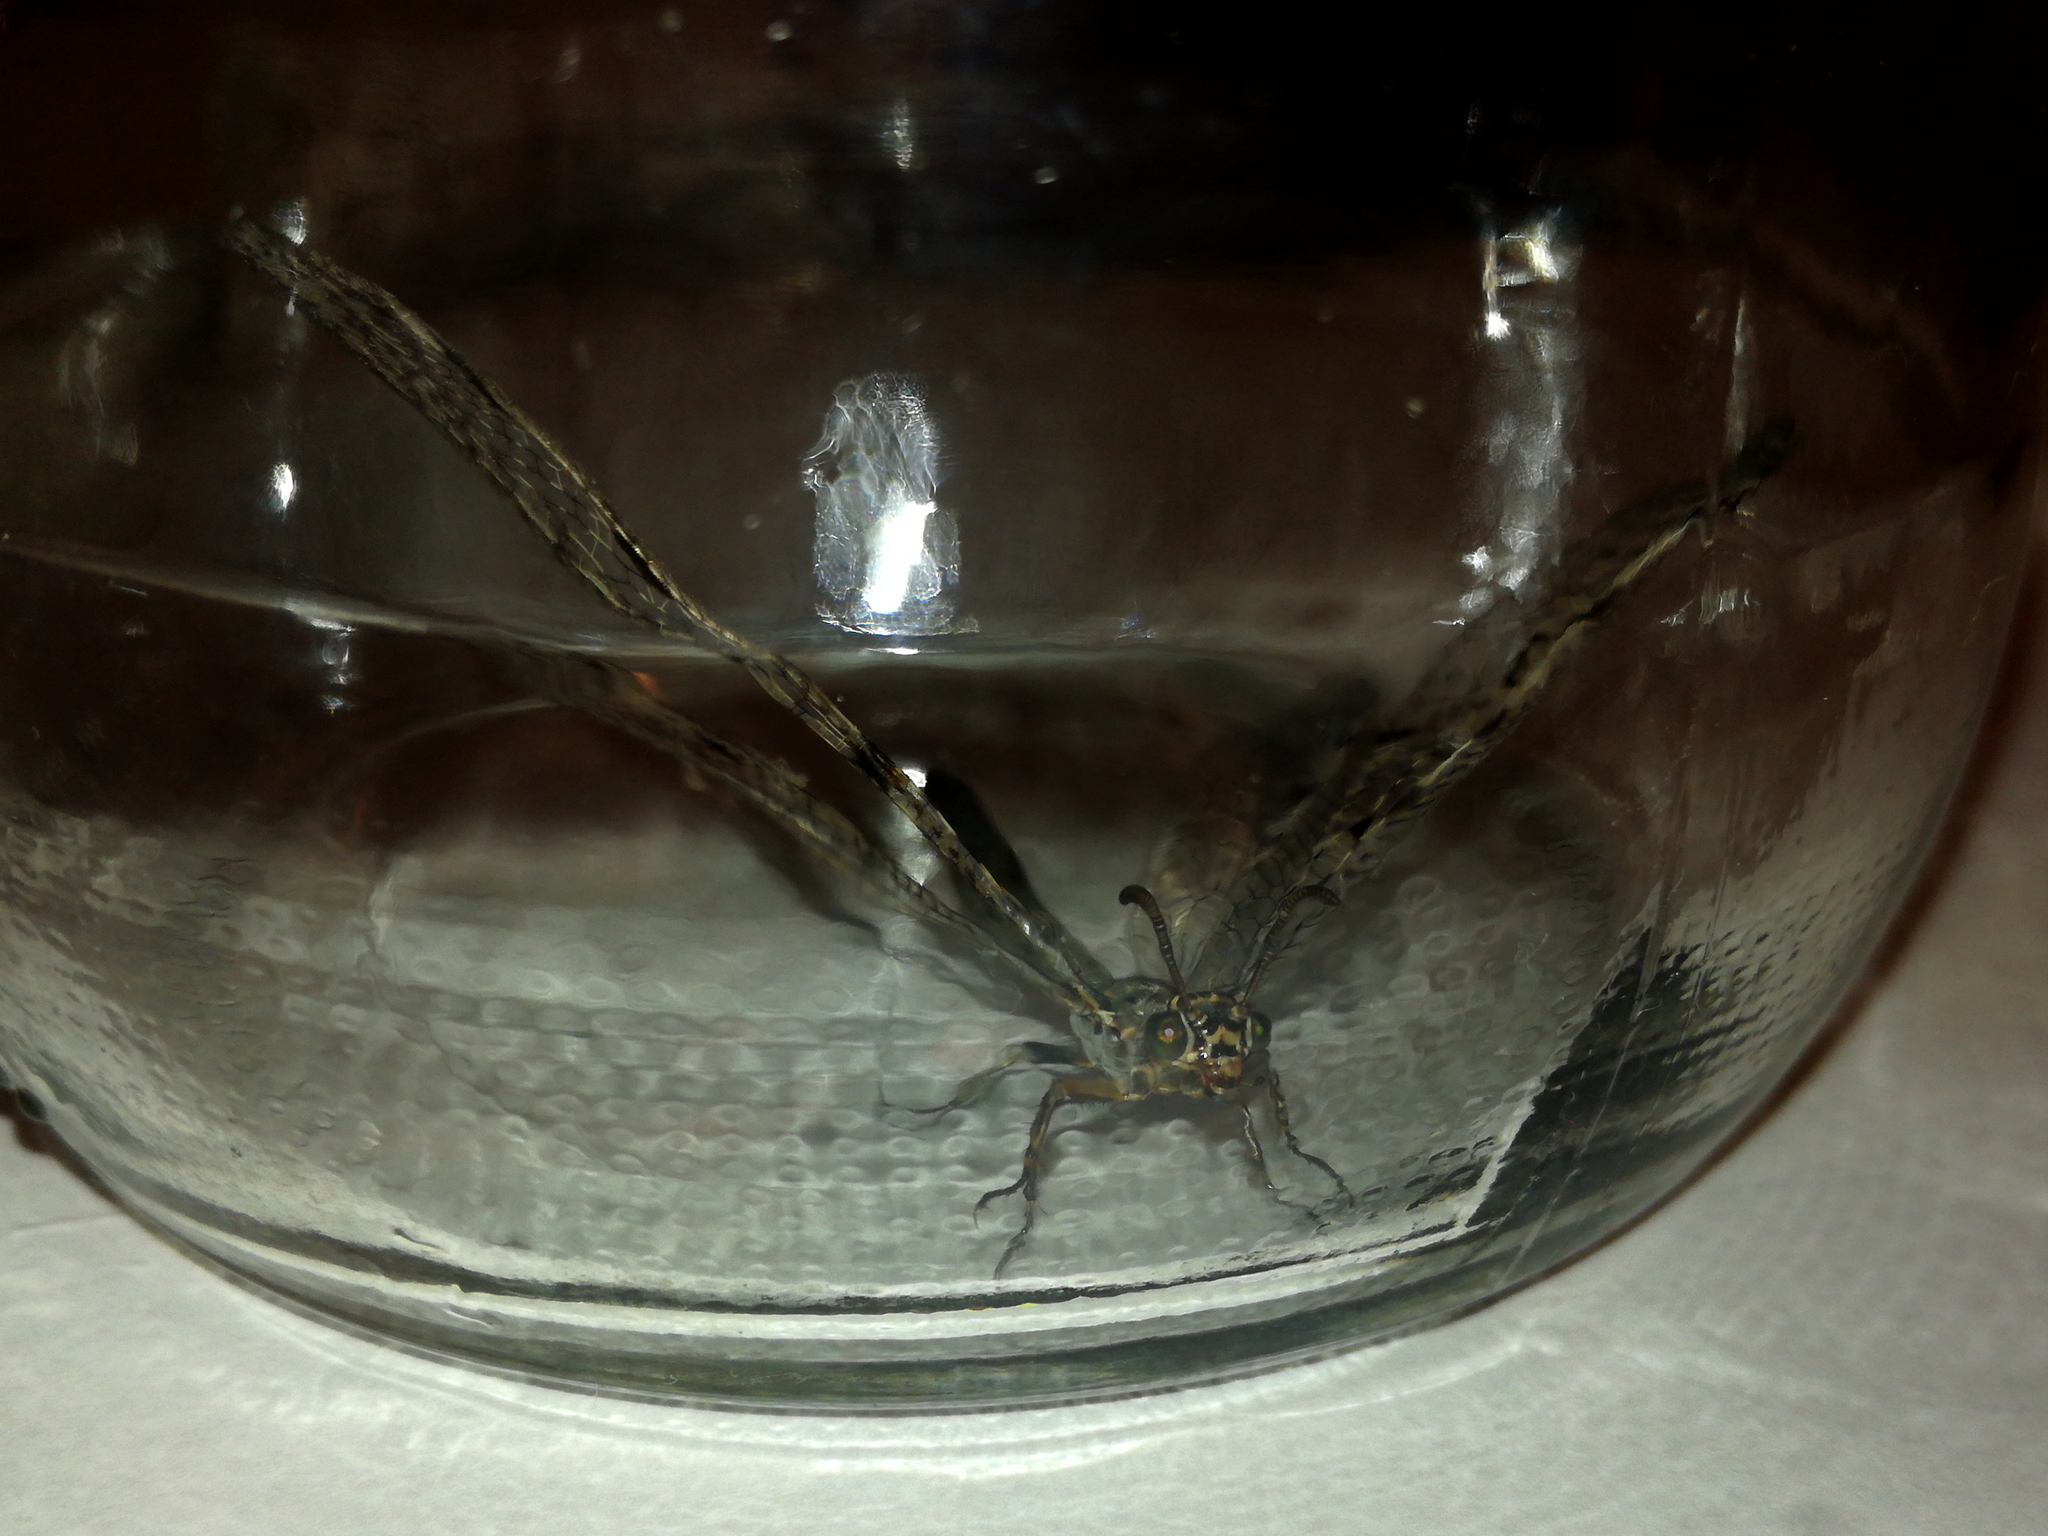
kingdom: Animalia
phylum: Arthropoda
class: Insecta
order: Neuroptera
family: Myrmeleontidae
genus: Euroleon
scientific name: Euroleon nostras
